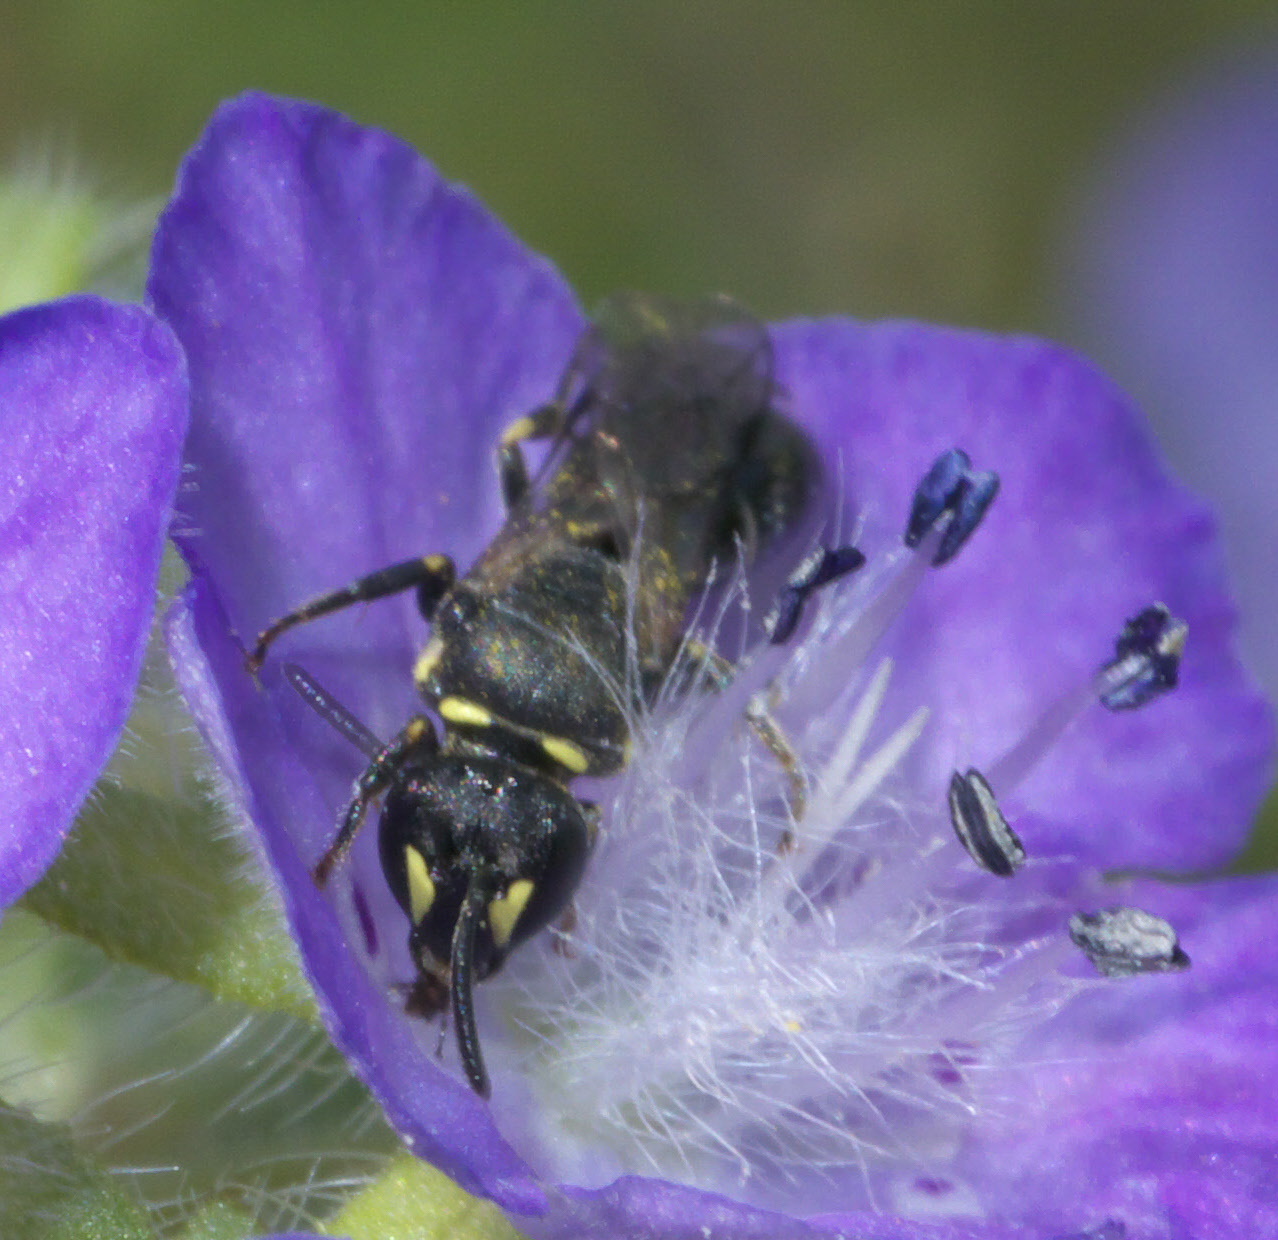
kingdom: Animalia
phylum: Arthropoda
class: Insecta
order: Hymenoptera
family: Colletidae
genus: Hylaeus
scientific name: Hylaeus modestus
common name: Yellow-faced bee
